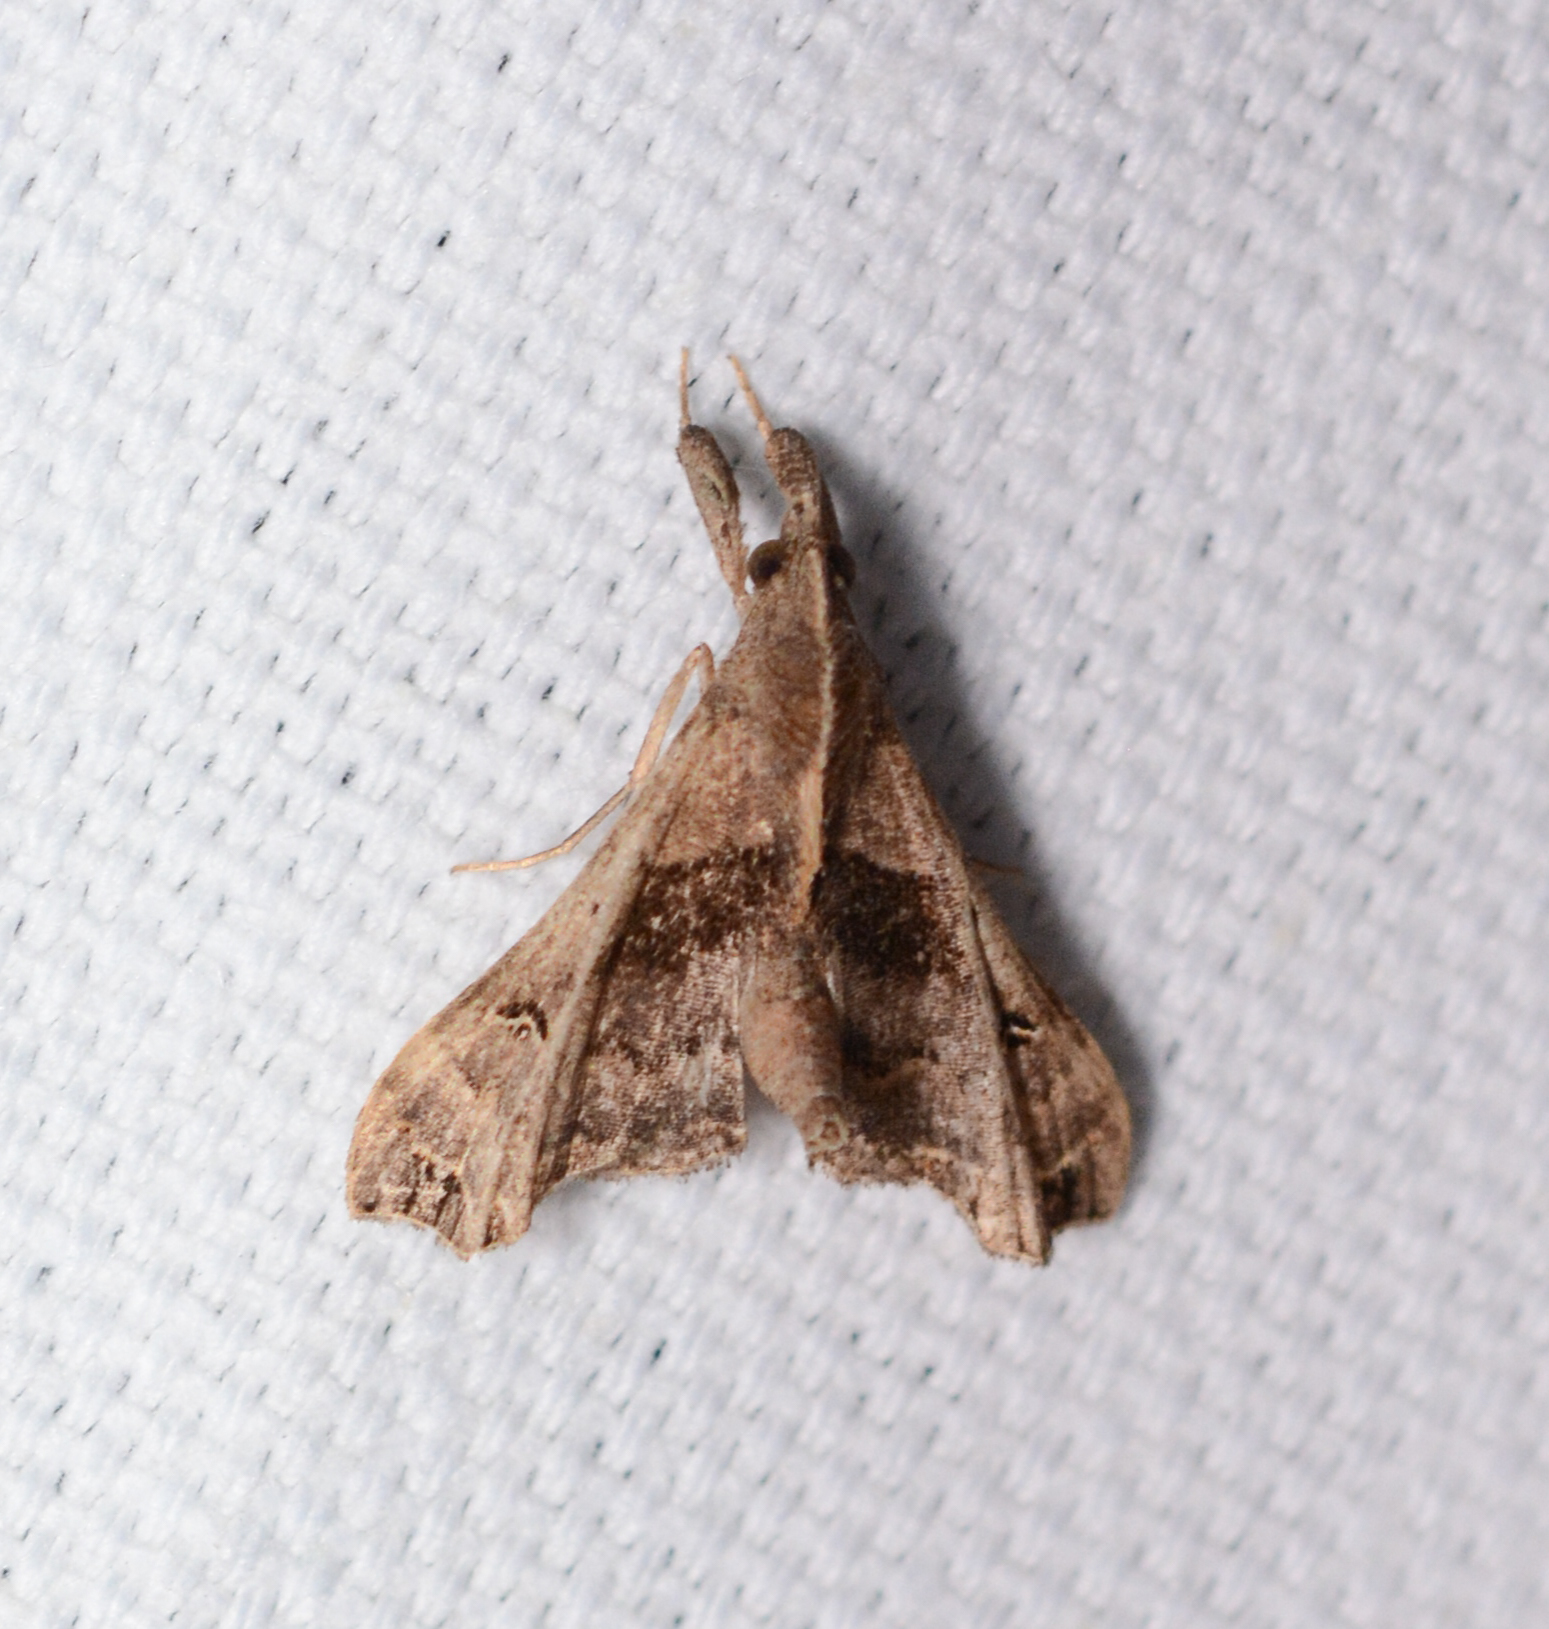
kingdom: Animalia
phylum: Arthropoda
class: Insecta
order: Lepidoptera
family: Erebidae
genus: Palthis
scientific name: Palthis asopialis
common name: Faint-spotted palthis moth
